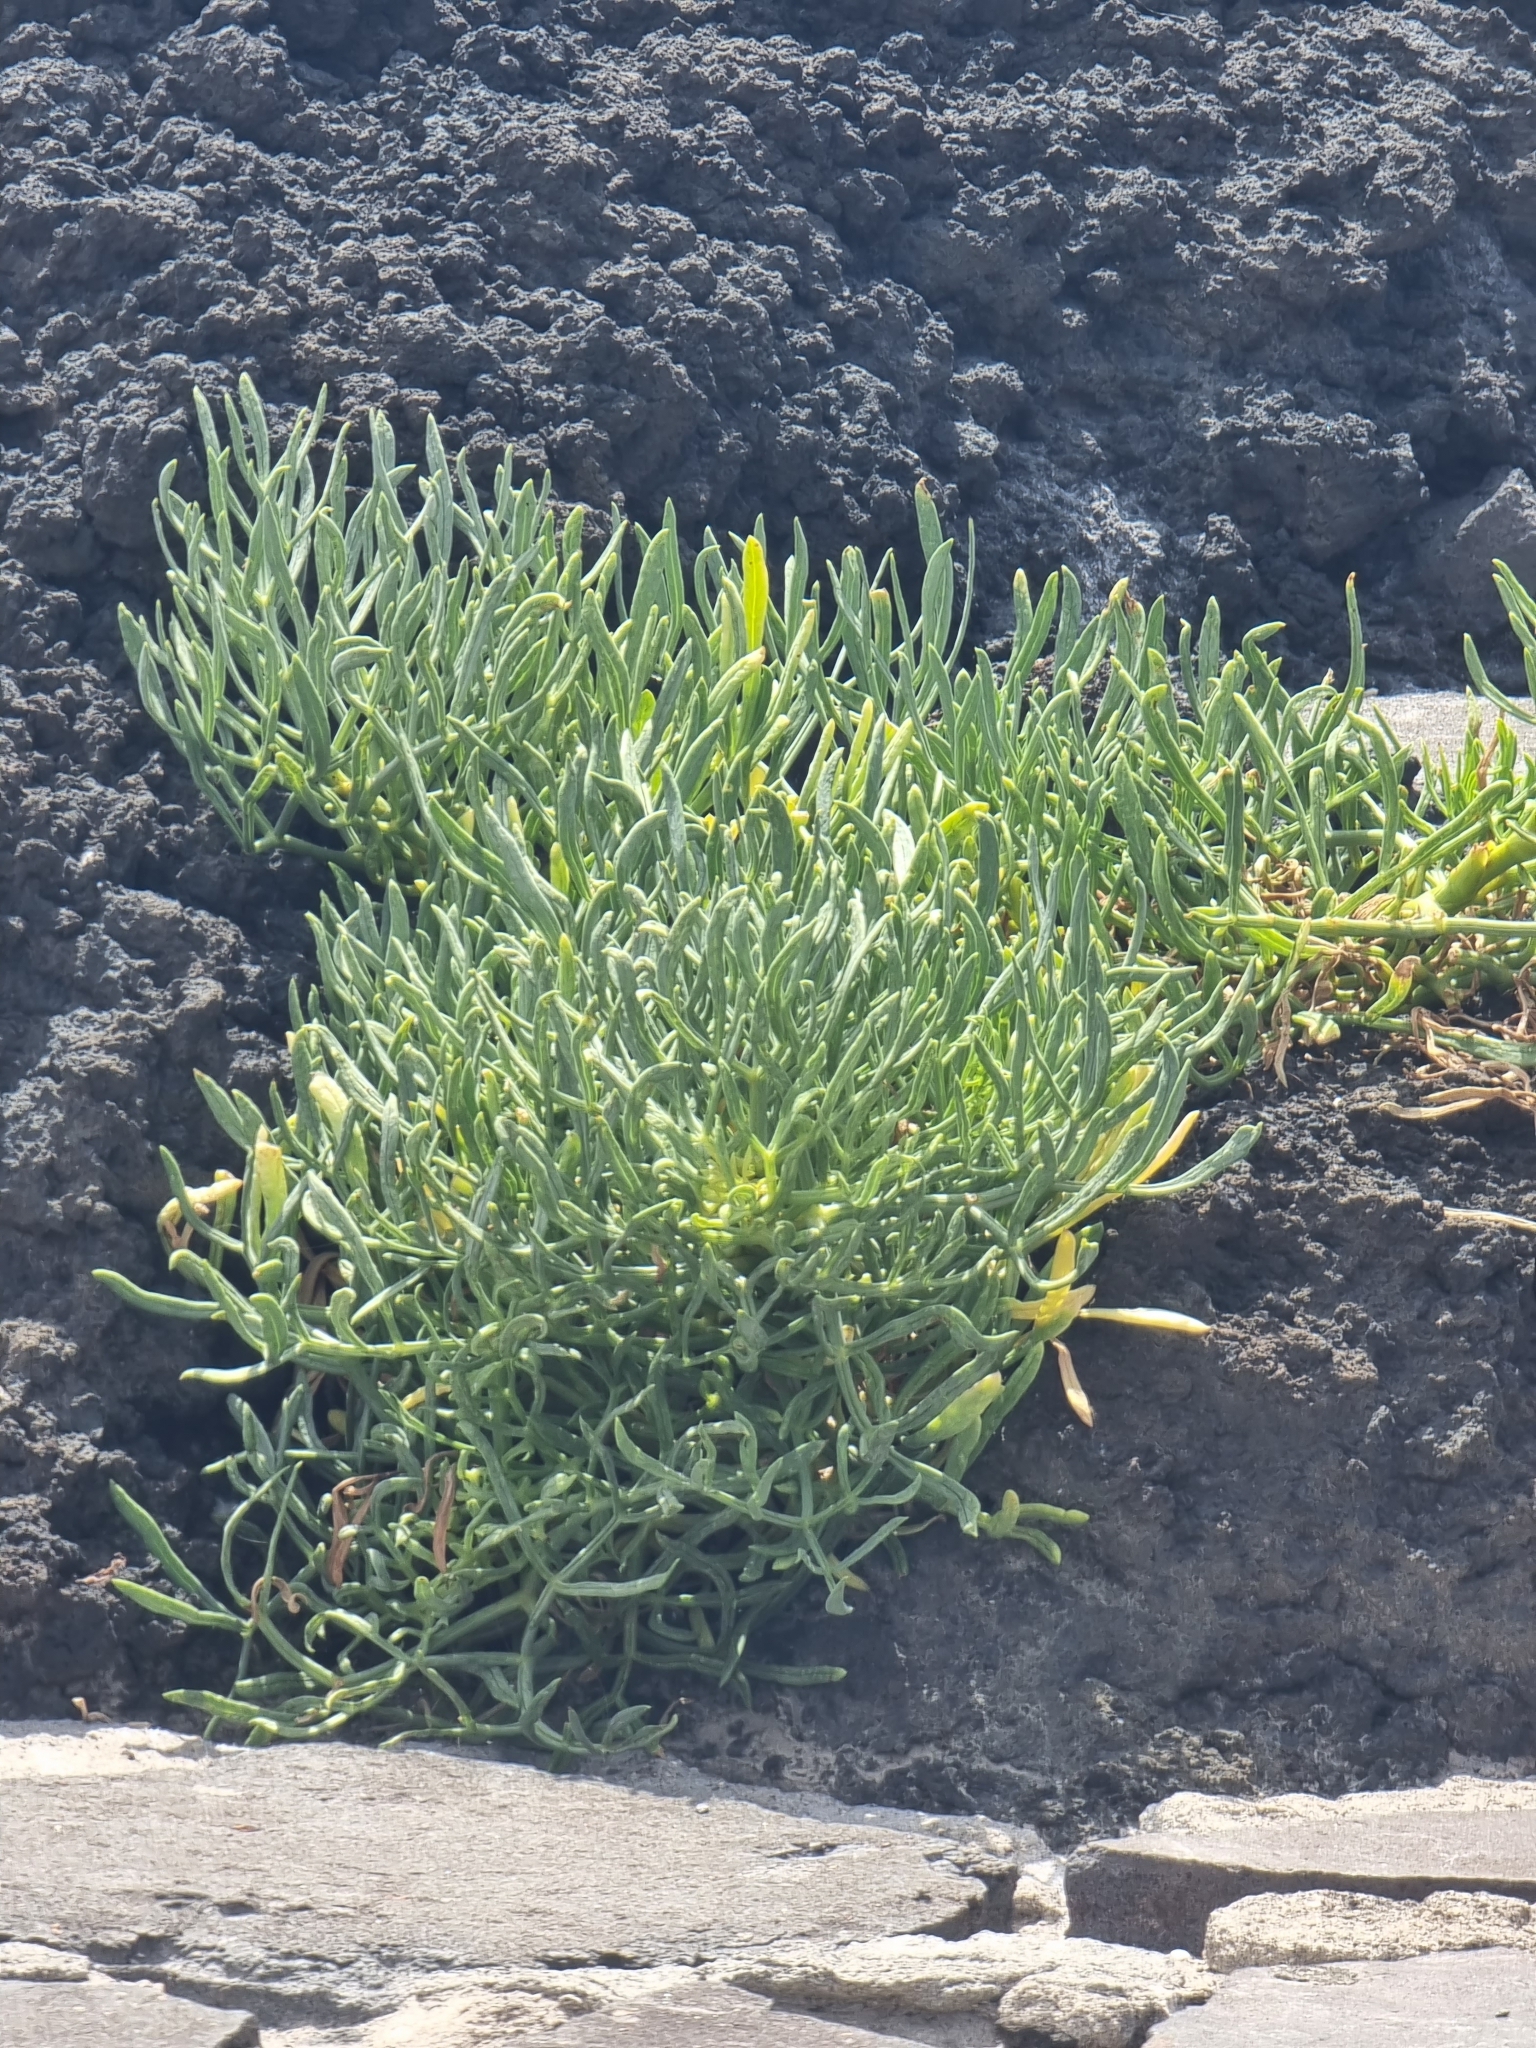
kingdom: Plantae
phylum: Tracheophyta
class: Magnoliopsida
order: Apiales
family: Apiaceae
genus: Crithmum
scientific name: Crithmum maritimum
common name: Rock samphire
